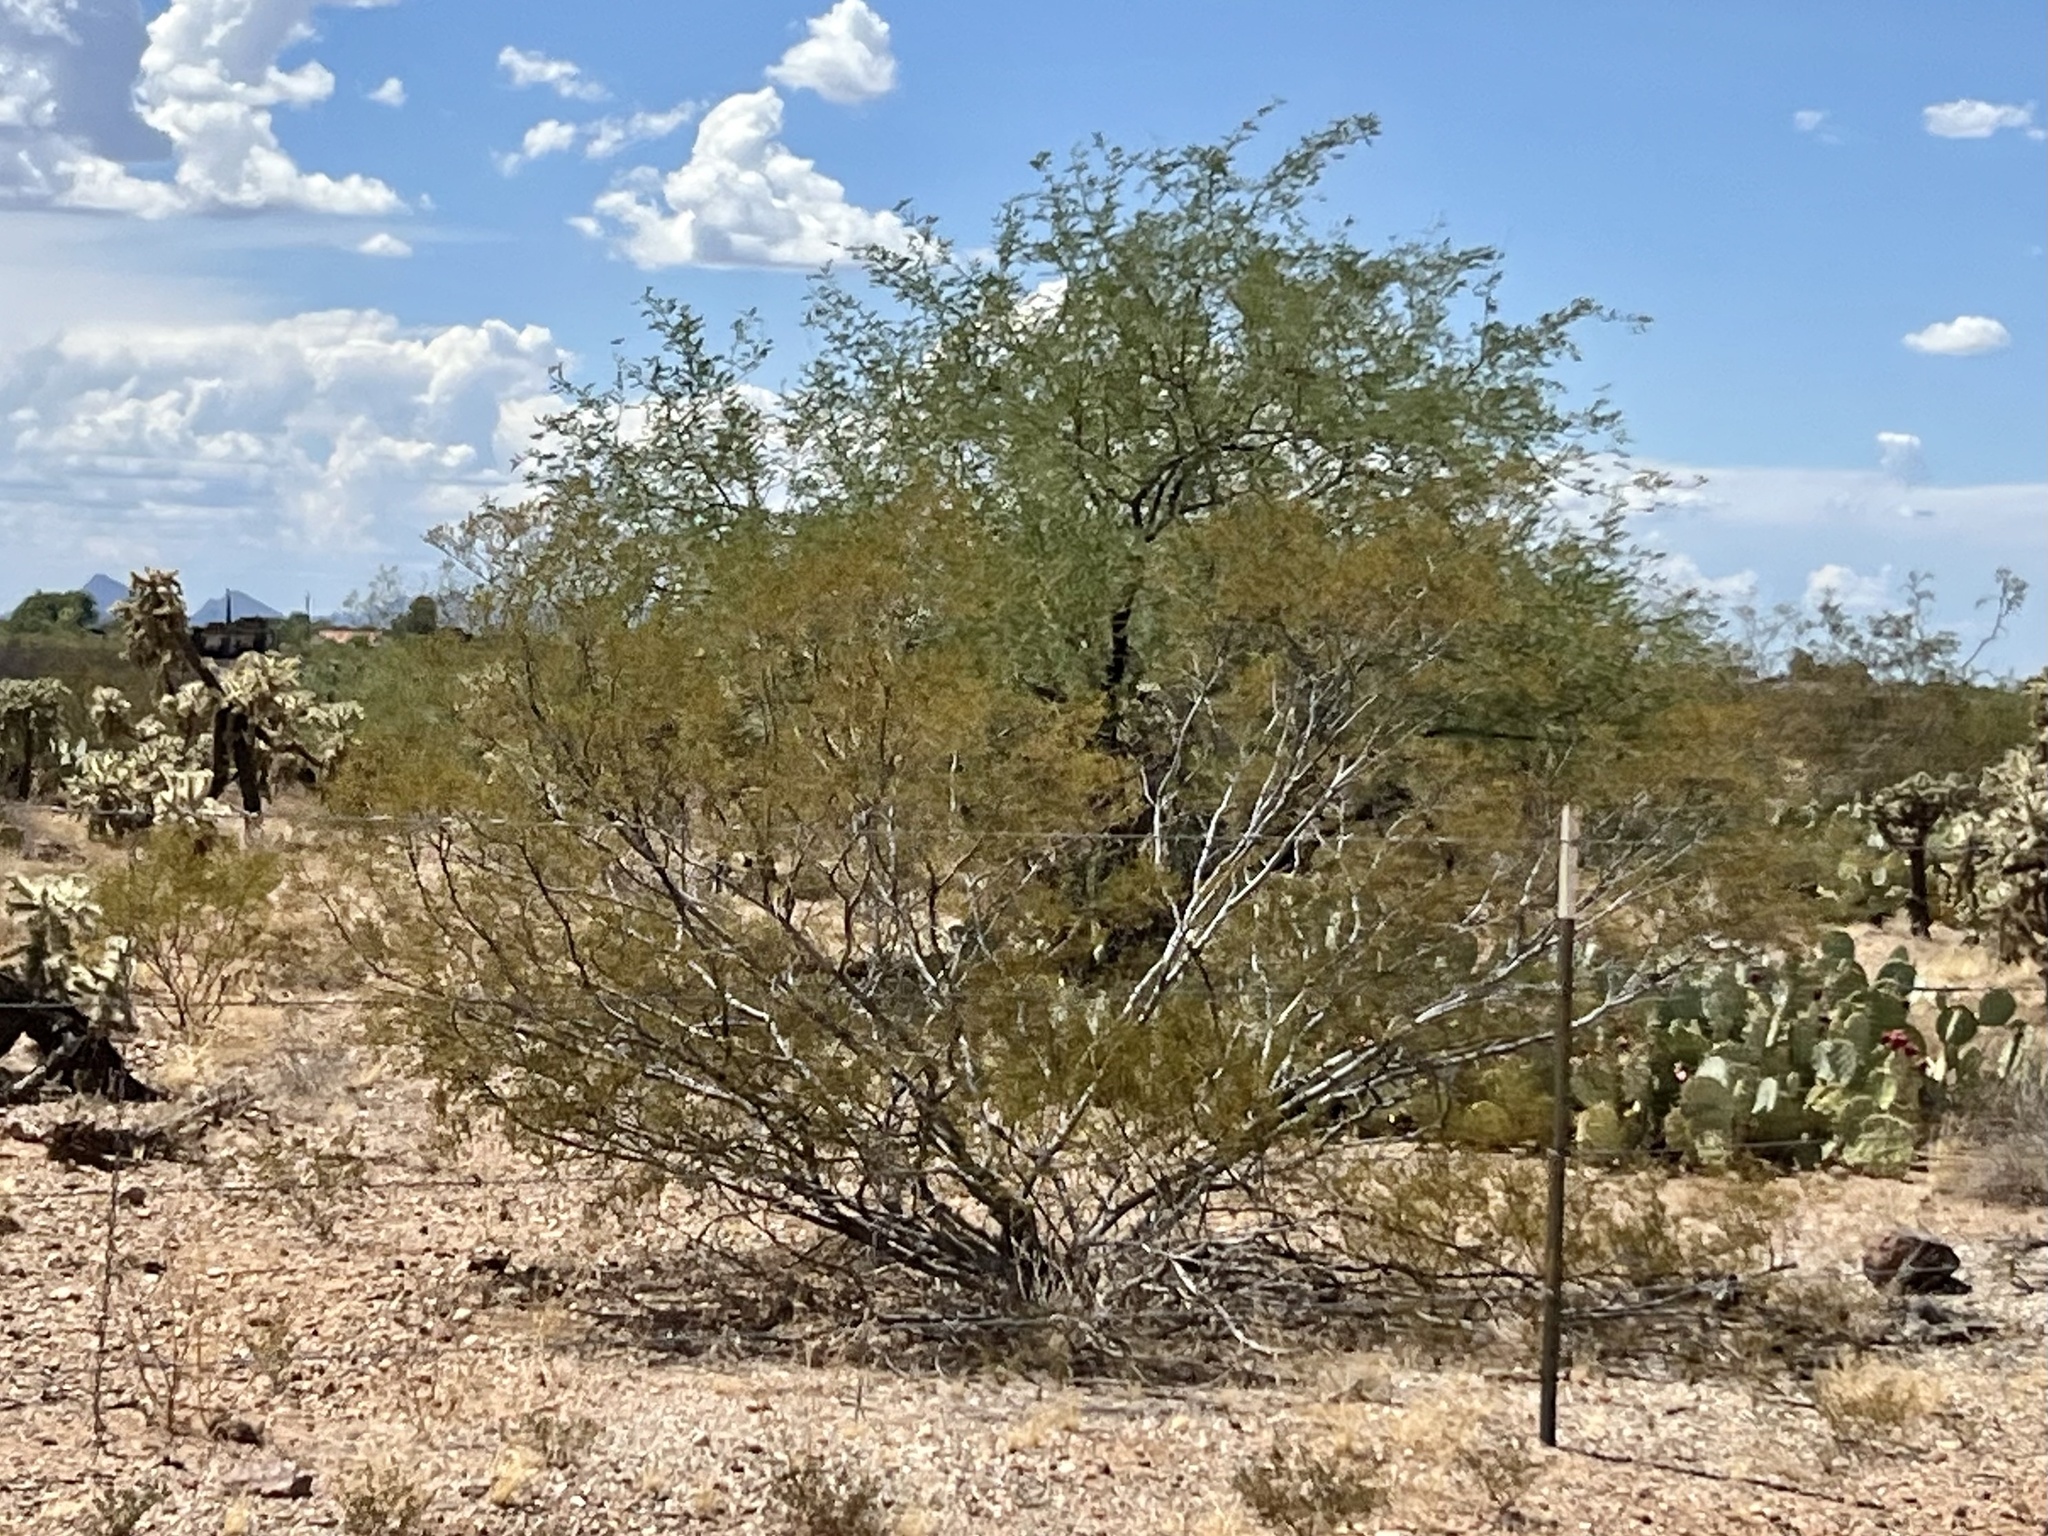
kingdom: Plantae
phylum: Tracheophyta
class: Magnoliopsida
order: Zygophyllales
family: Zygophyllaceae
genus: Larrea
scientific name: Larrea tridentata
